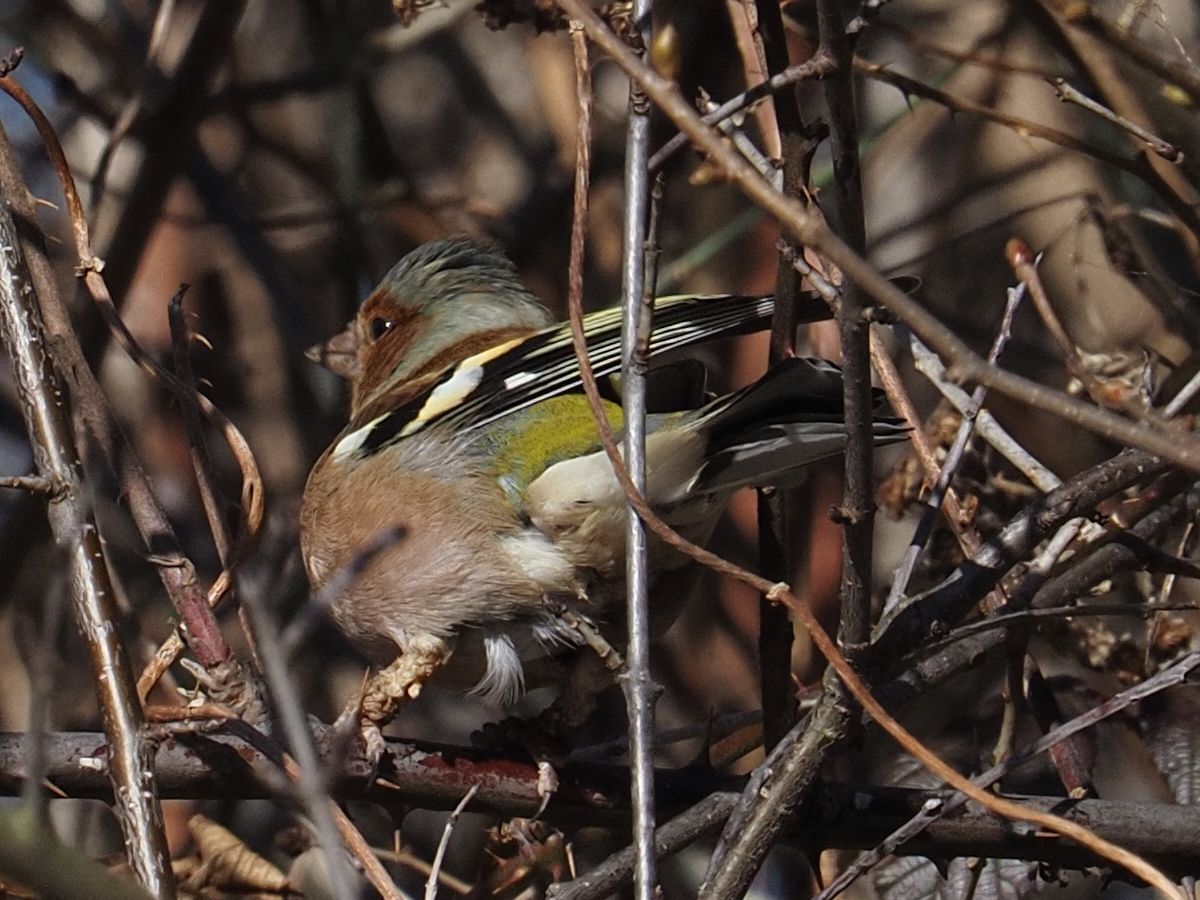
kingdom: Animalia
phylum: Chordata
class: Aves
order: Passeriformes
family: Fringillidae
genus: Fringilla
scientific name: Fringilla coelebs
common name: Common chaffinch
